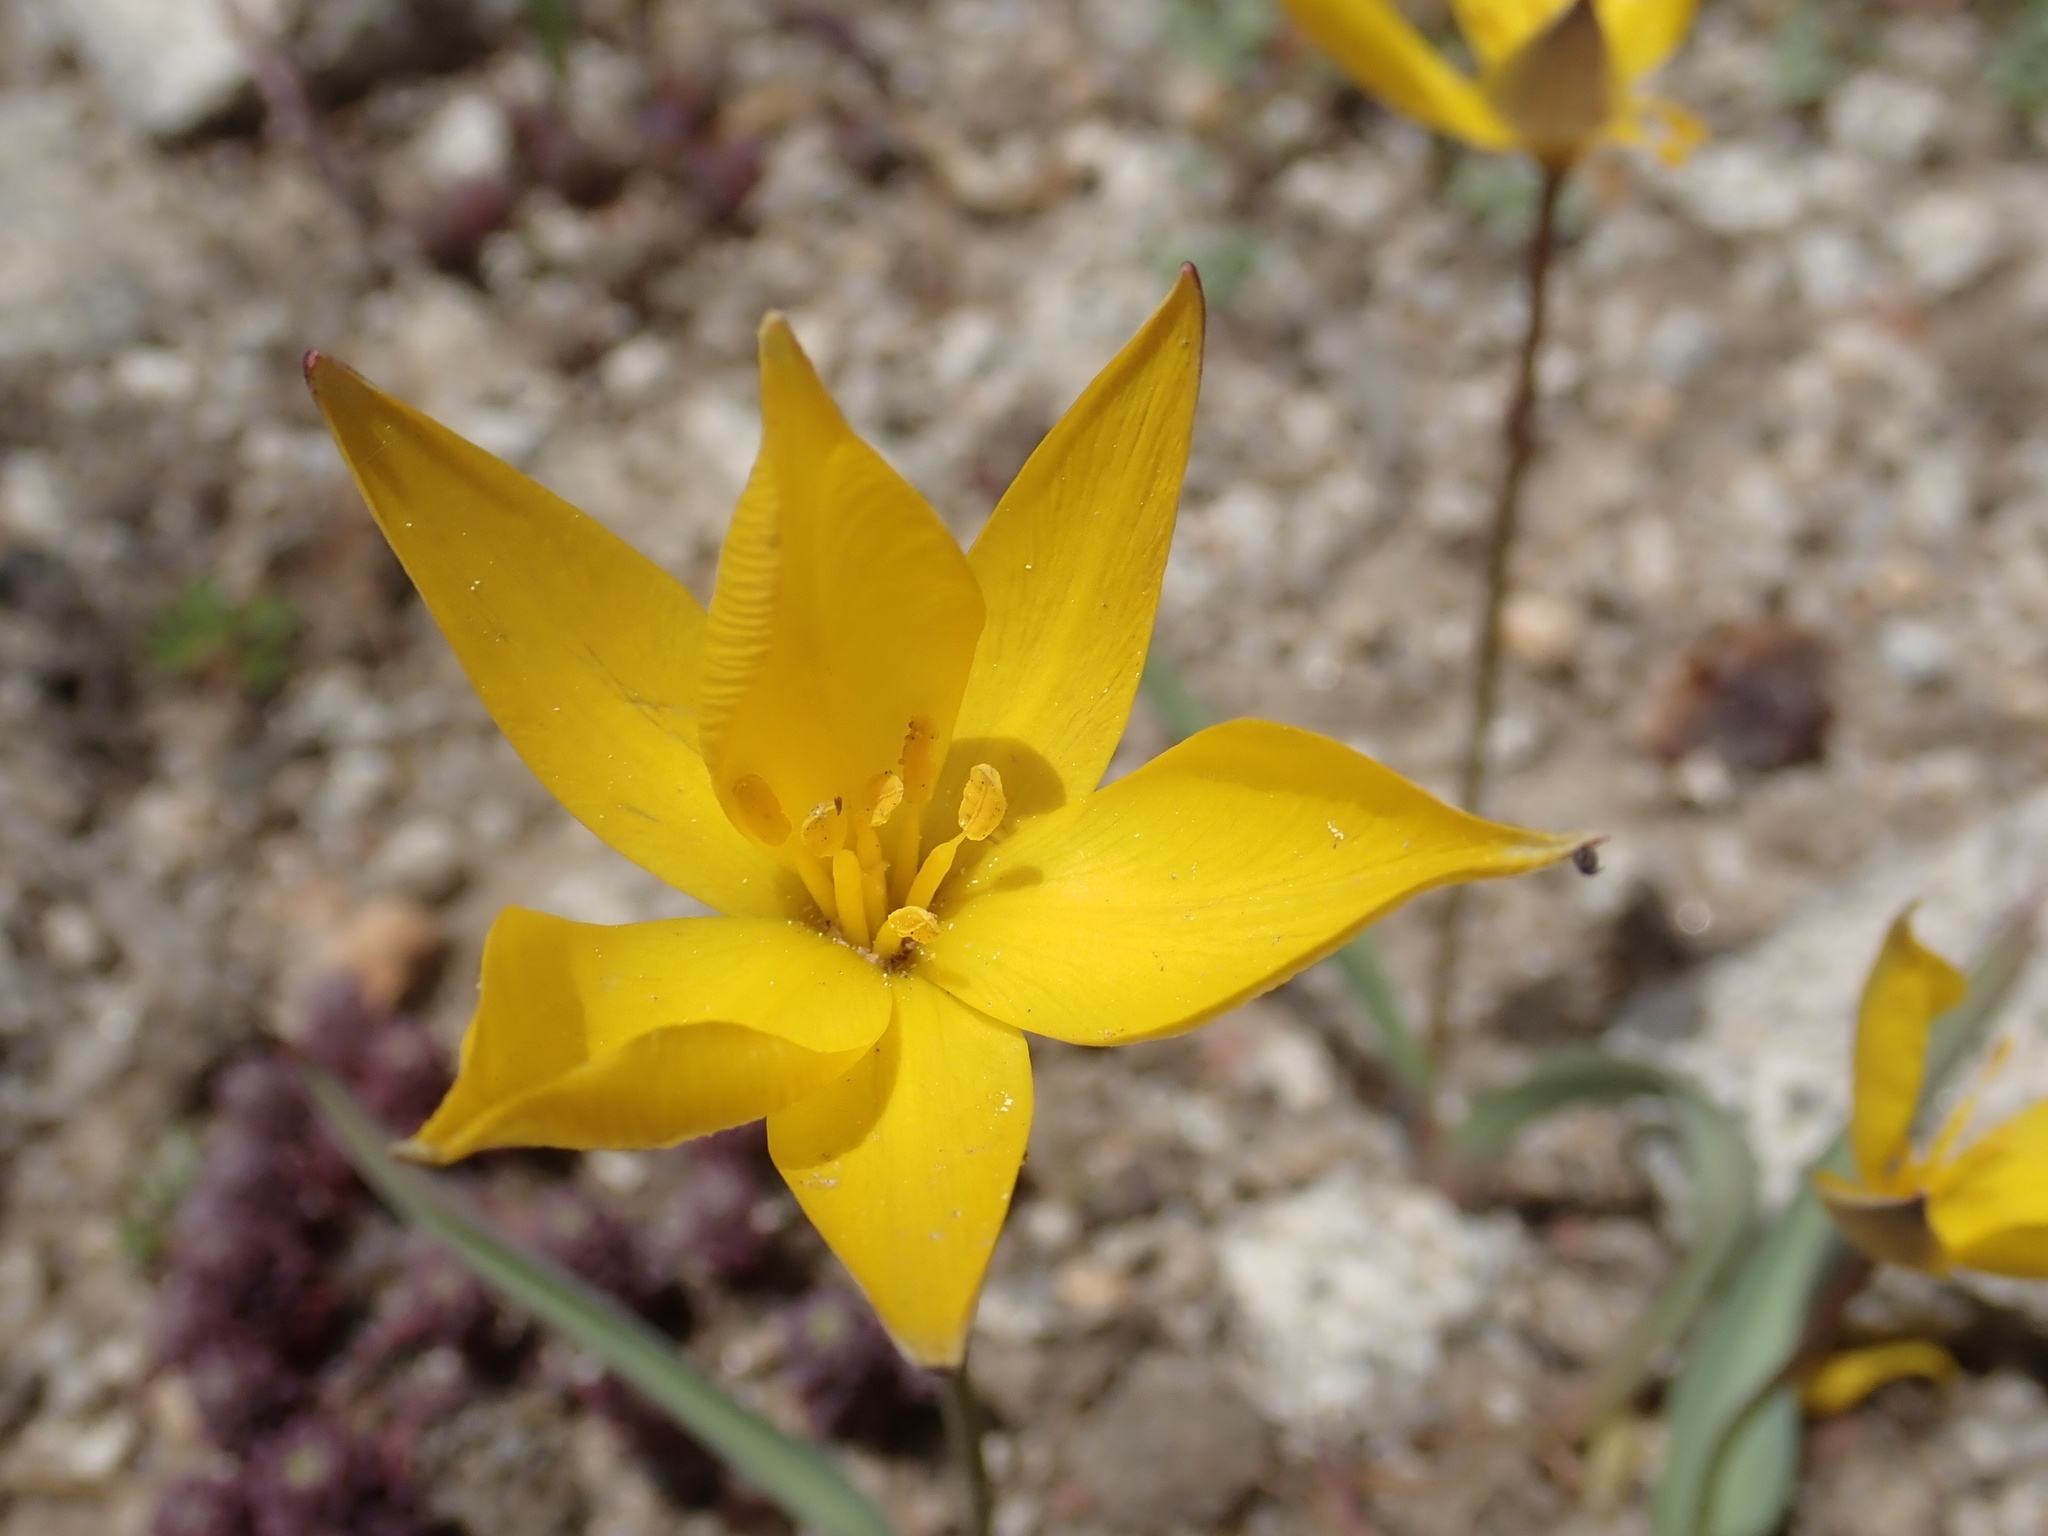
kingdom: Plantae
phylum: Tracheophyta
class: Liliopsida
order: Liliales
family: Liliaceae
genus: Tulipa
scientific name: Tulipa sylvestris
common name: Wild tulip
